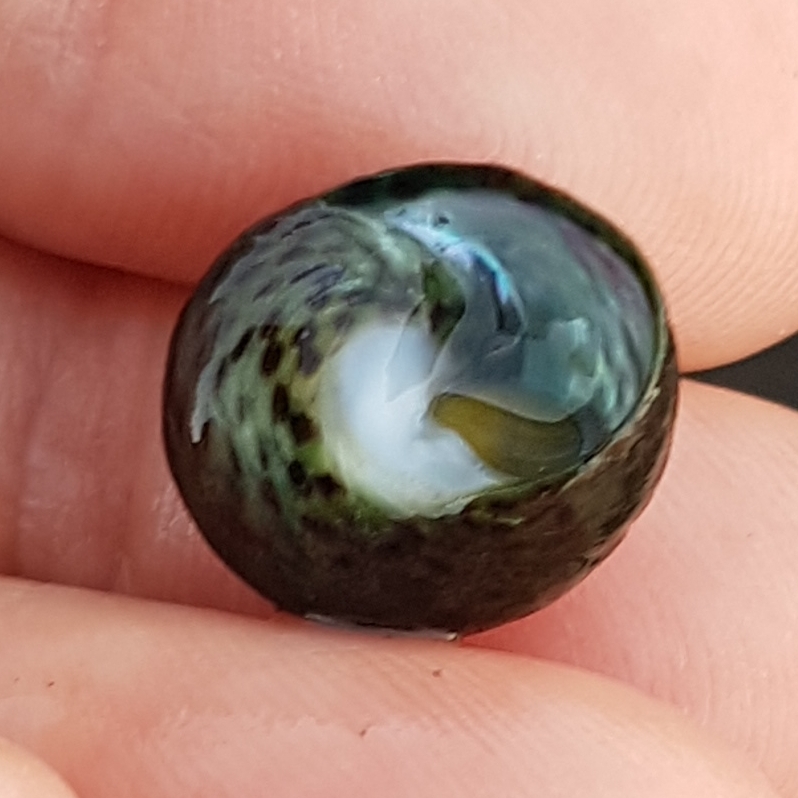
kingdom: Animalia
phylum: Mollusca
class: Gastropoda
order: Trochida
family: Trochidae
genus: Phorcus
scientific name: Phorcus sauciatus
